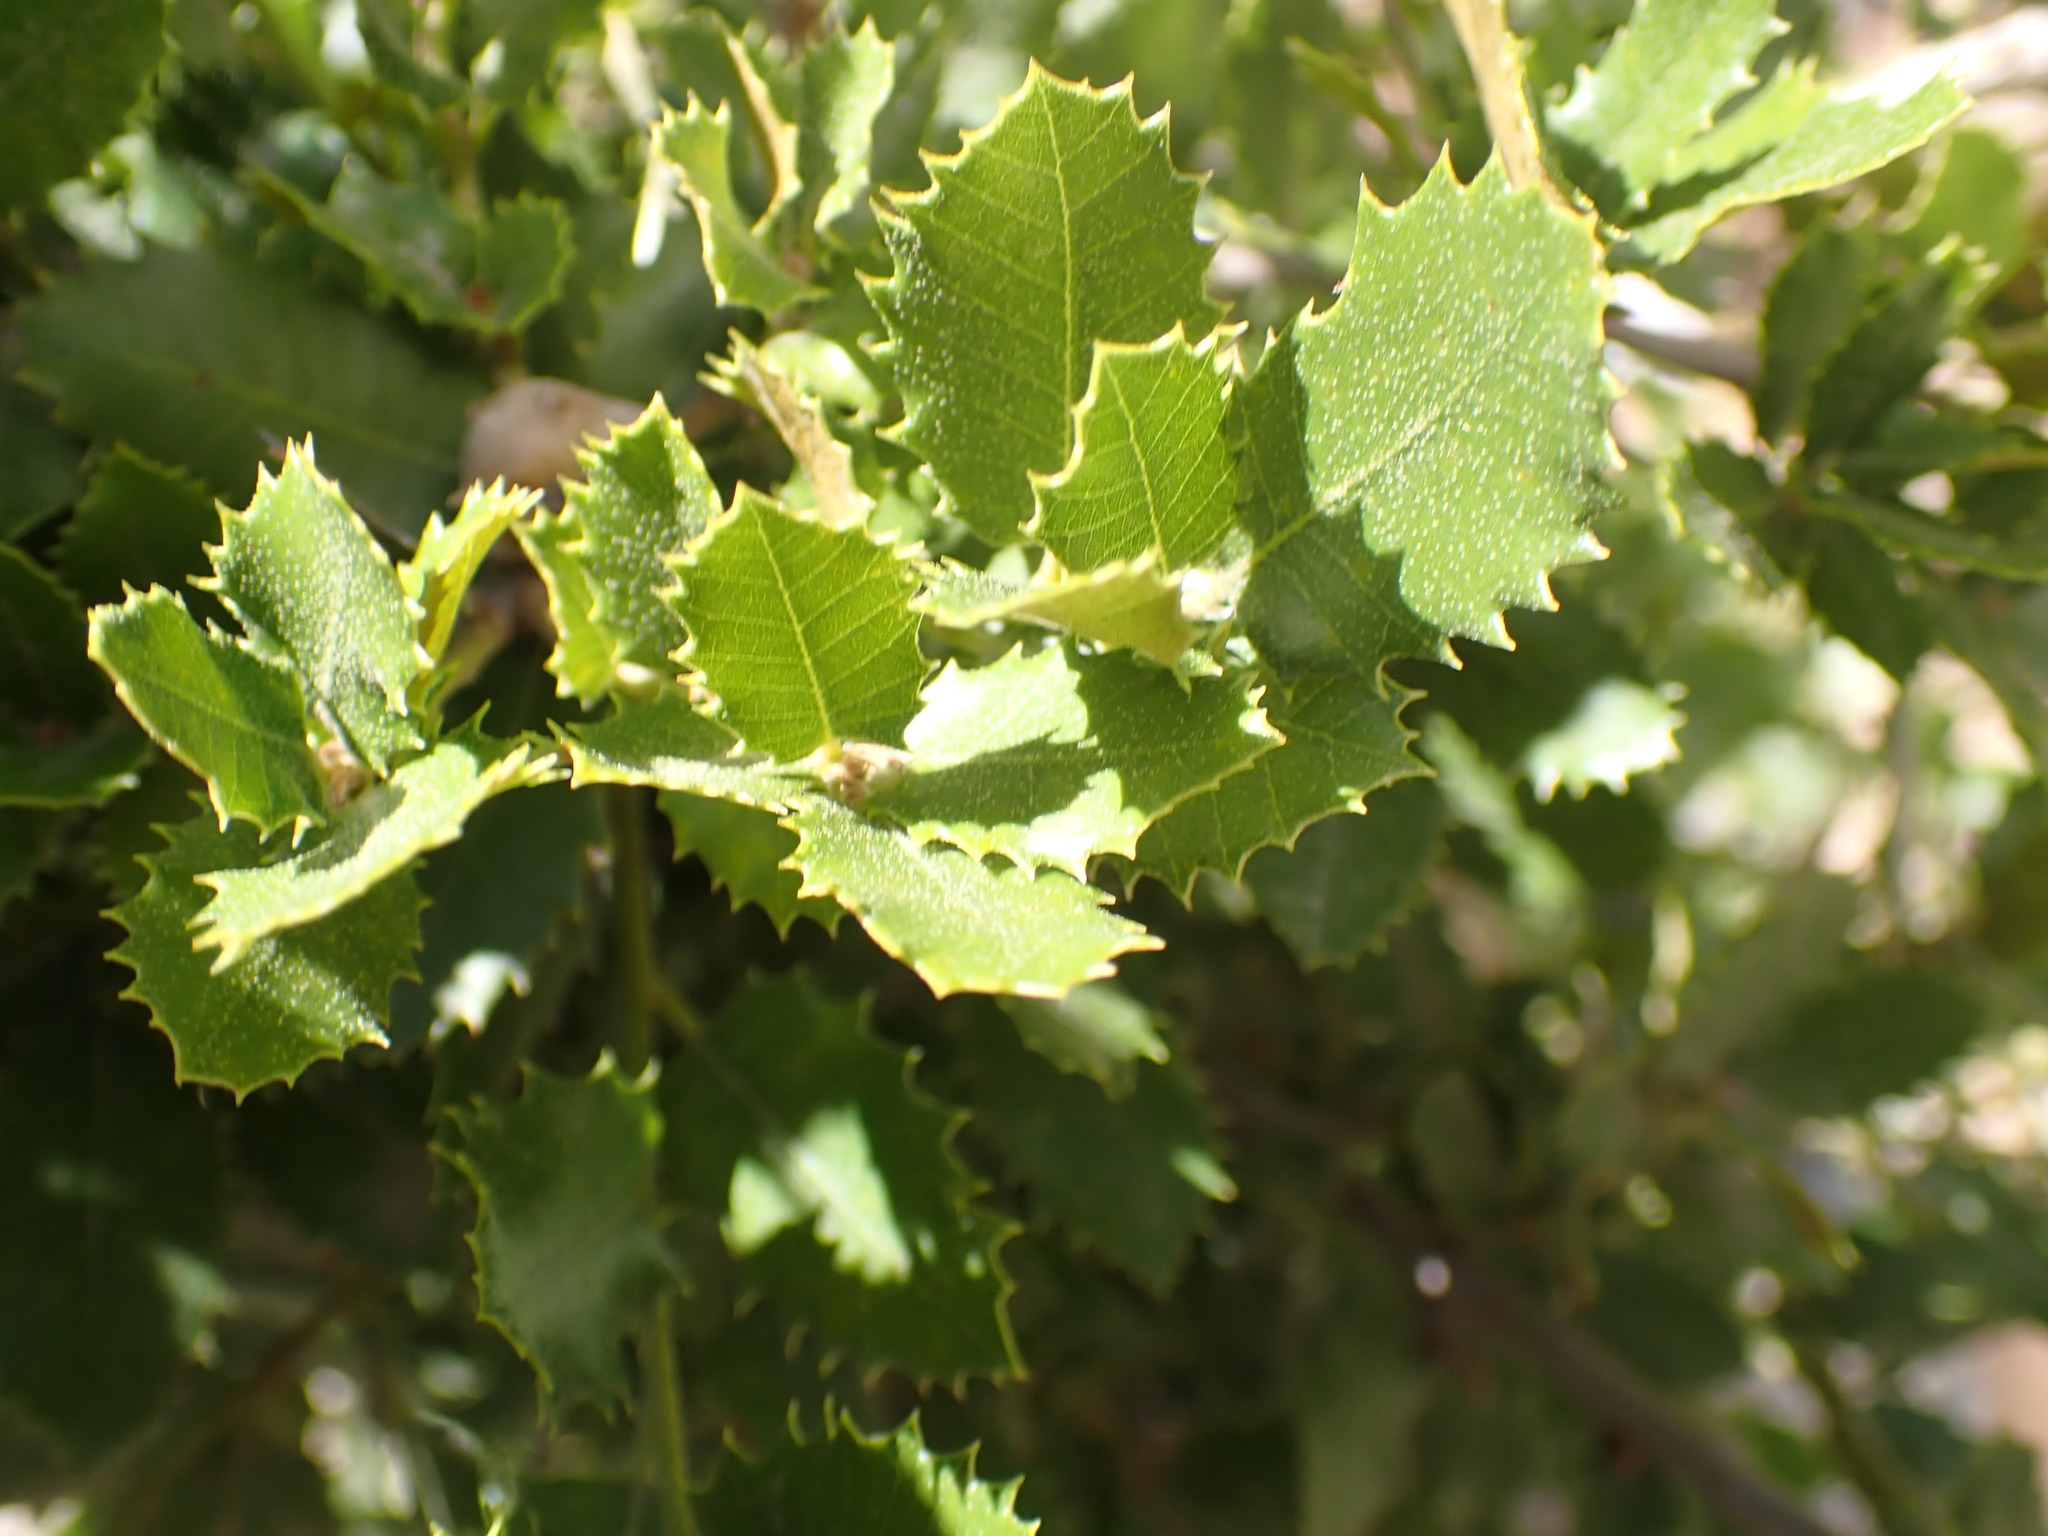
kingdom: Plantae
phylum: Tracheophyta
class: Magnoliopsida
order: Fagales
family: Fagaceae
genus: Quercus
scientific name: Quercus chrysolepis
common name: Canyon live oak
